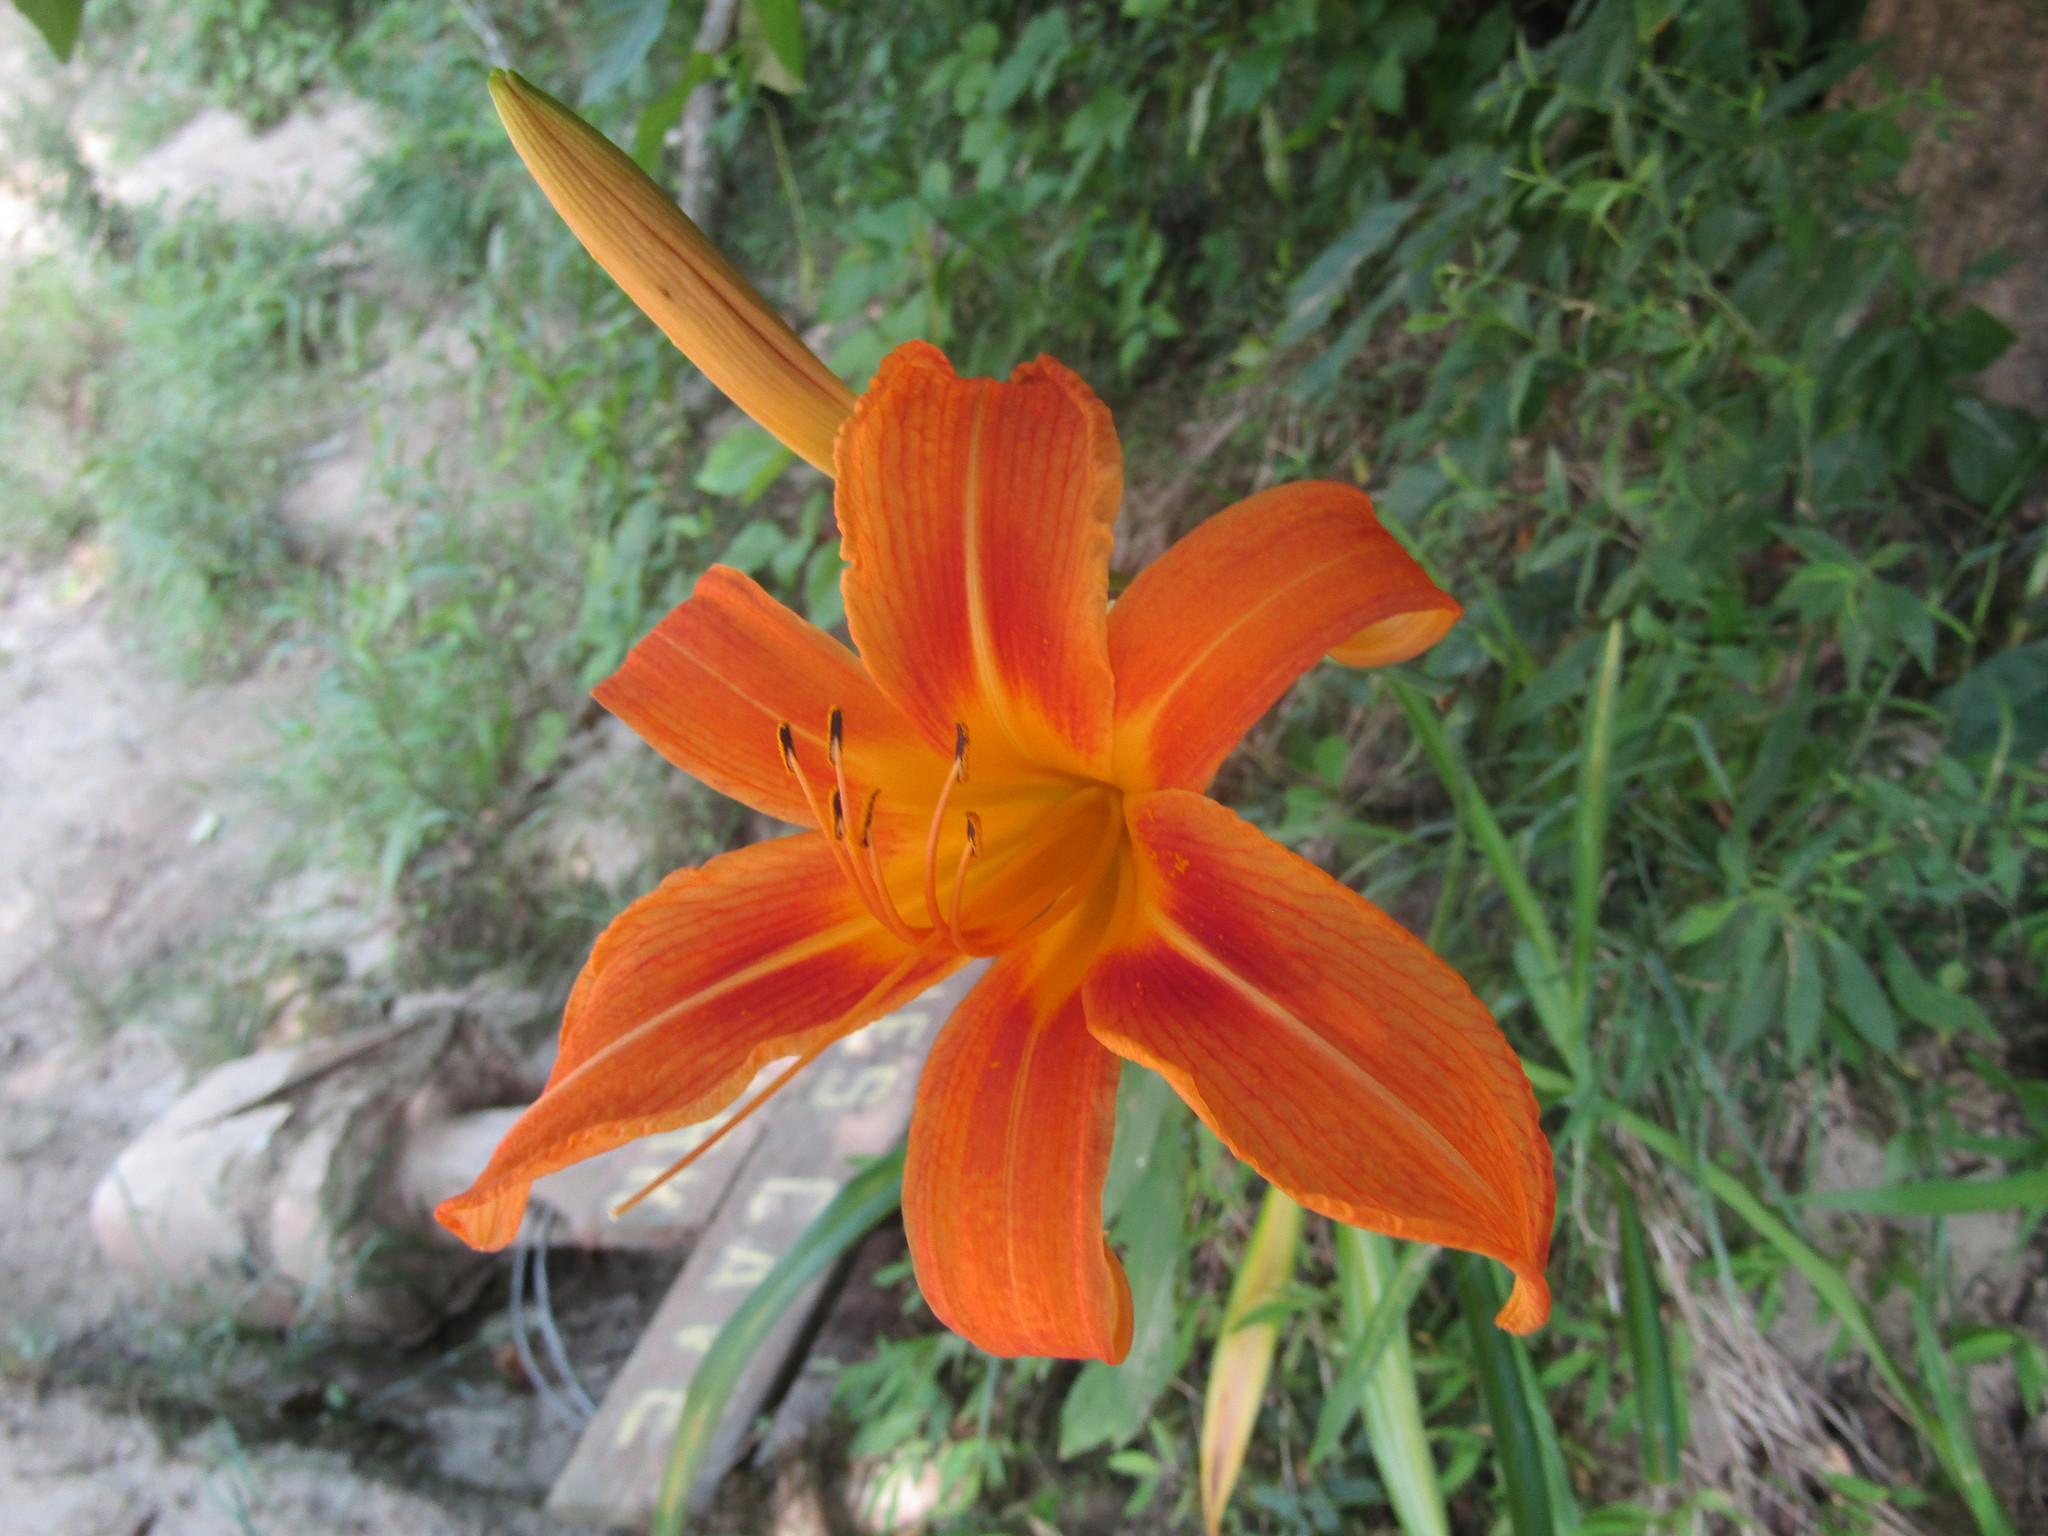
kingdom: Plantae
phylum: Tracheophyta
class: Liliopsida
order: Asparagales
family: Asphodelaceae
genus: Hemerocallis
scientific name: Hemerocallis fulva
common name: Orange day-lily
